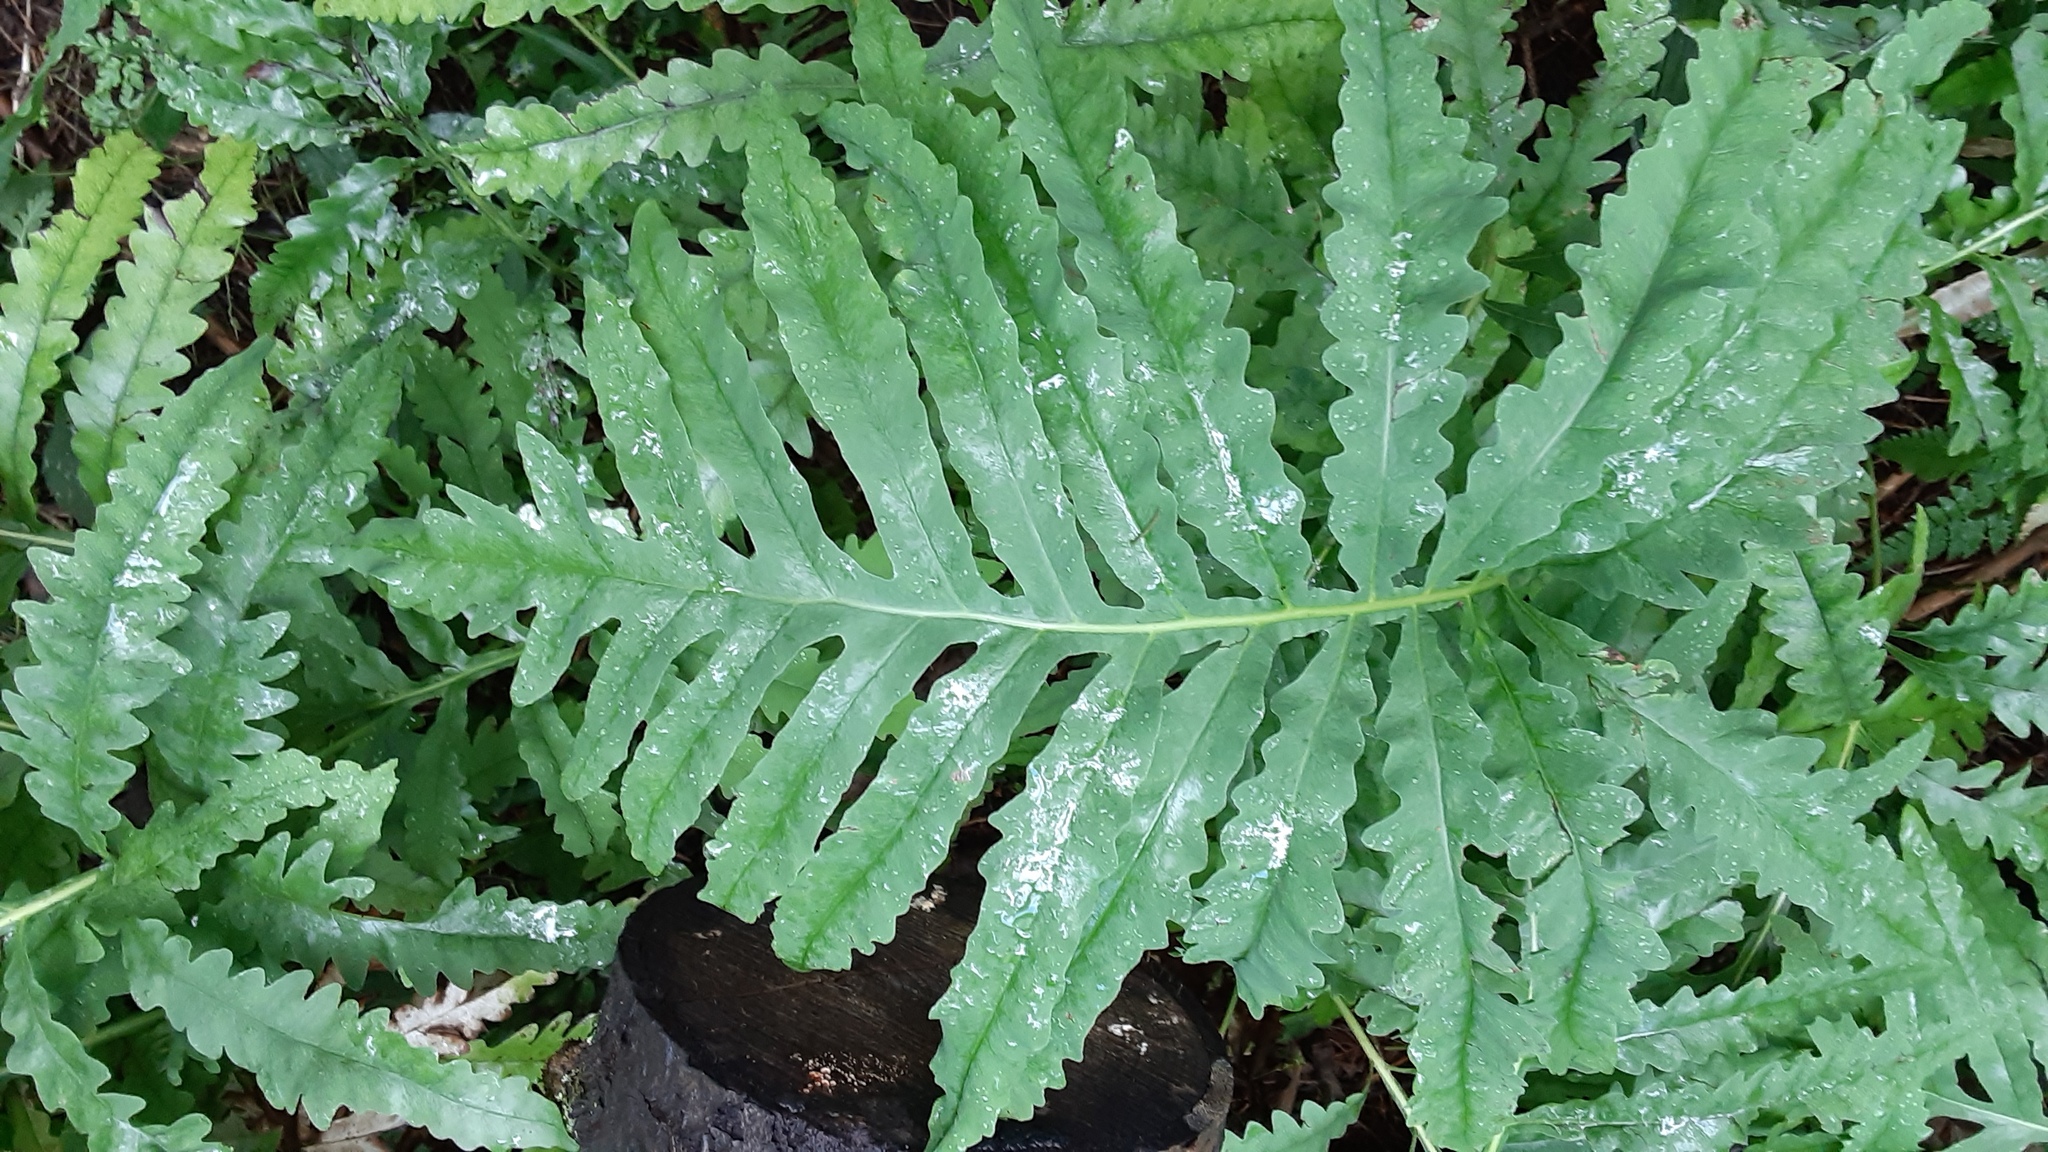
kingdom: Plantae
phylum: Tracheophyta
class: Polypodiopsida
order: Polypodiales
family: Onocleaceae
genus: Onoclea
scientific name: Onoclea sensibilis
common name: Sensitive fern
